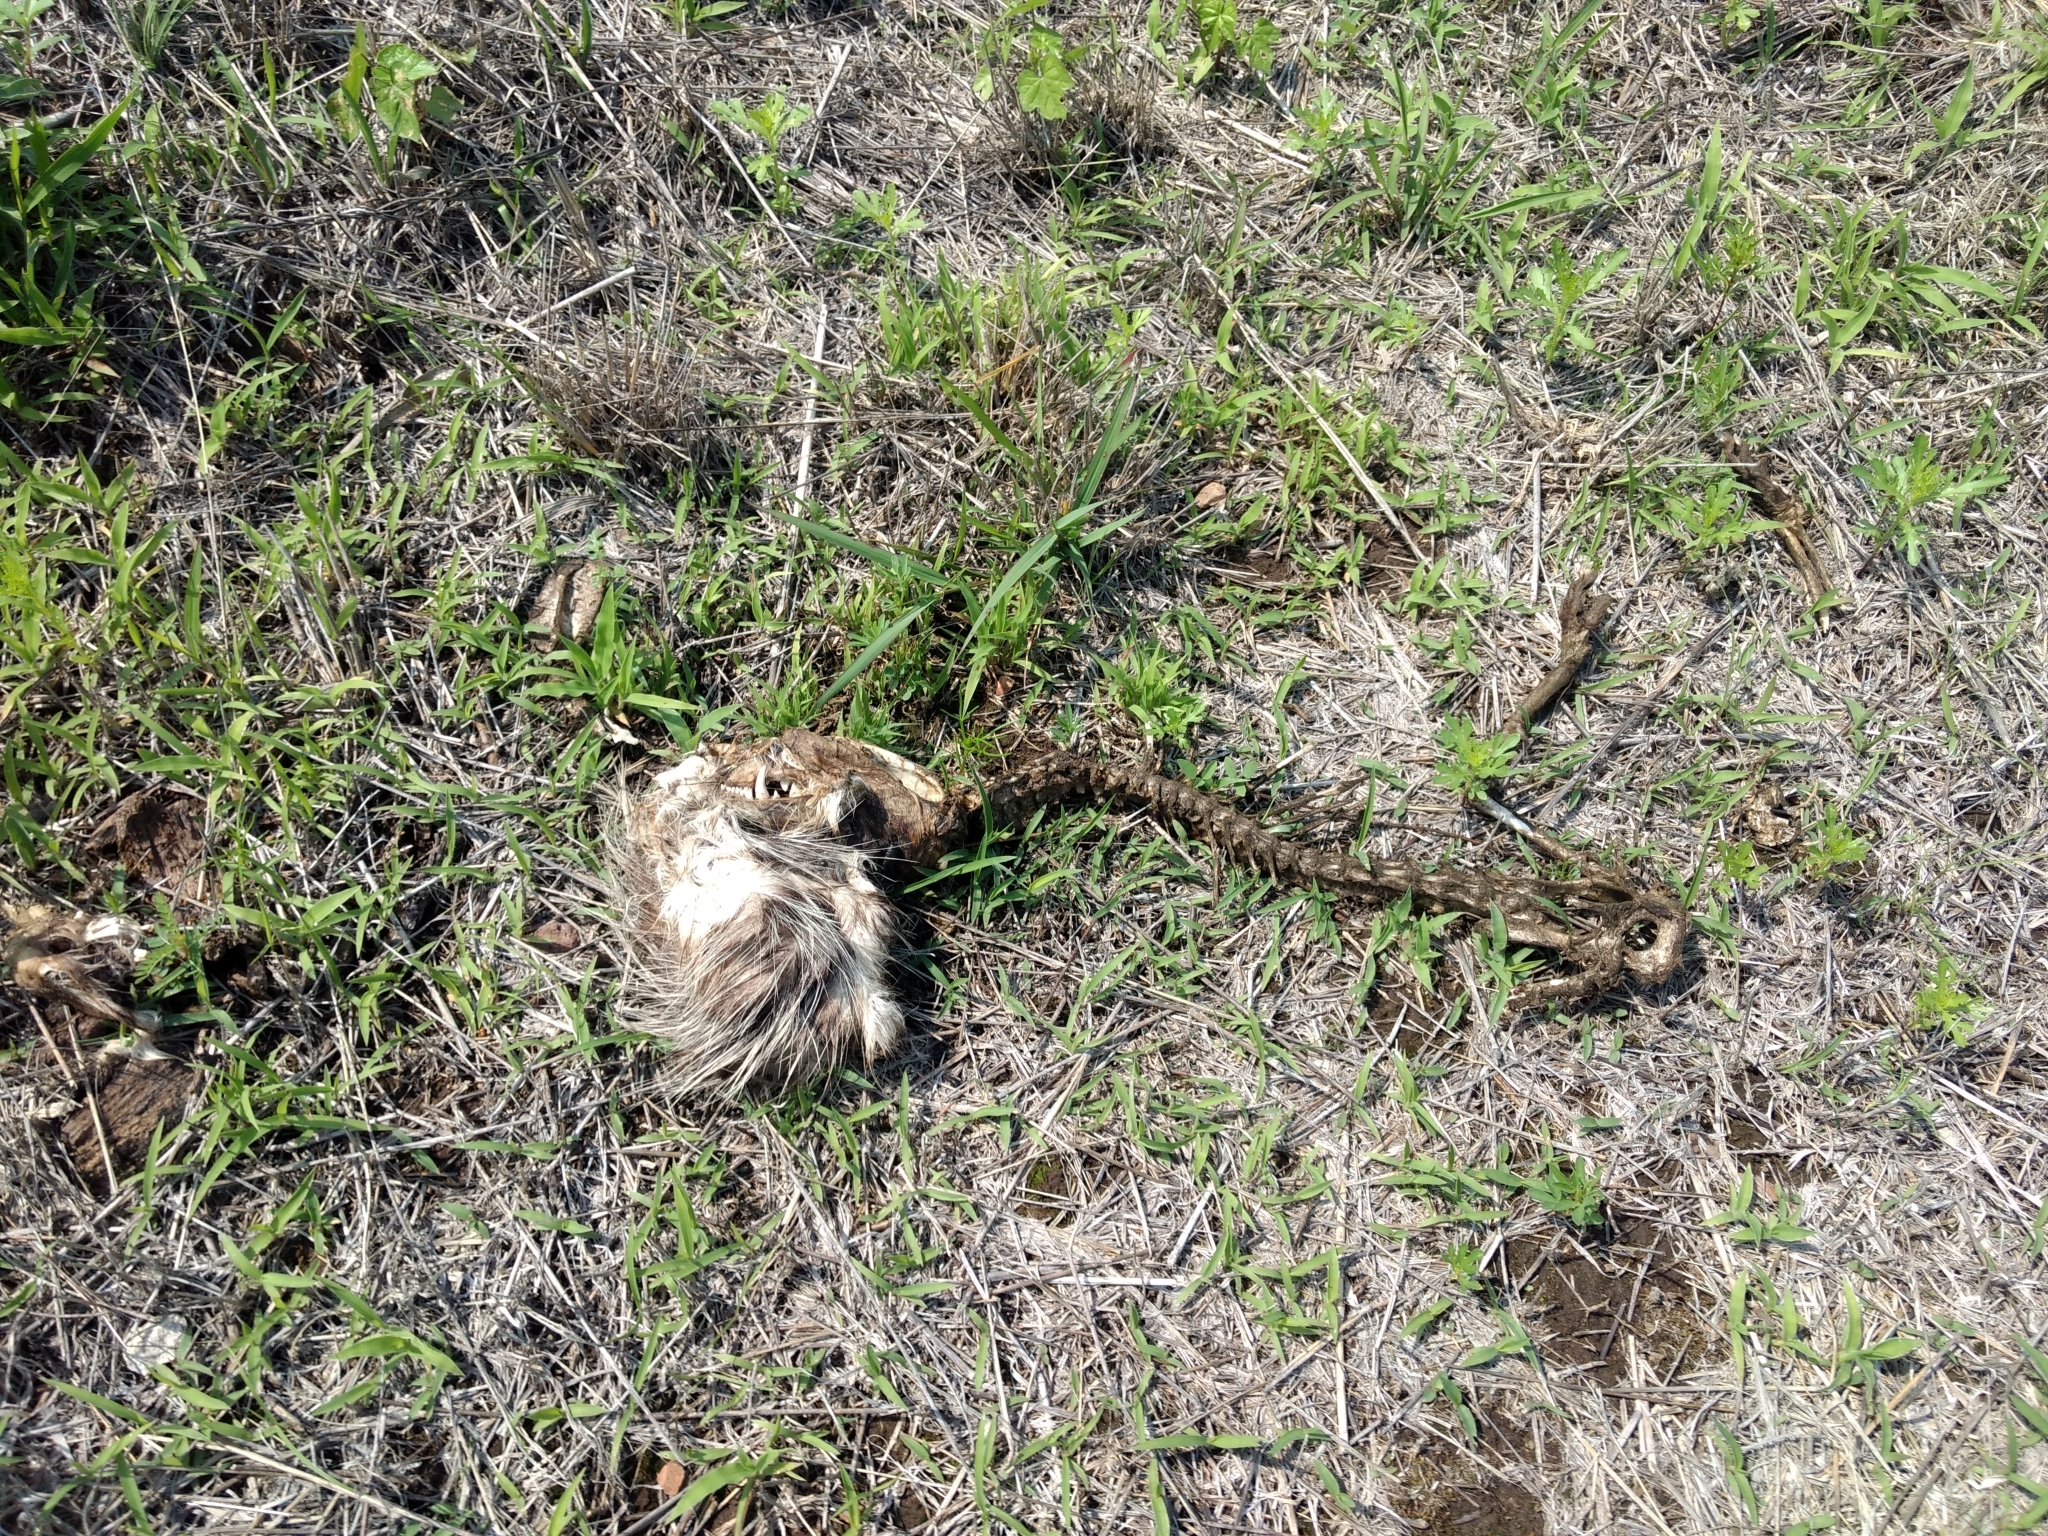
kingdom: Animalia
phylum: Chordata
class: Mammalia
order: Didelphimorphia
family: Didelphidae
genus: Didelphis
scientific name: Didelphis virginiana
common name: Virginia opossum
